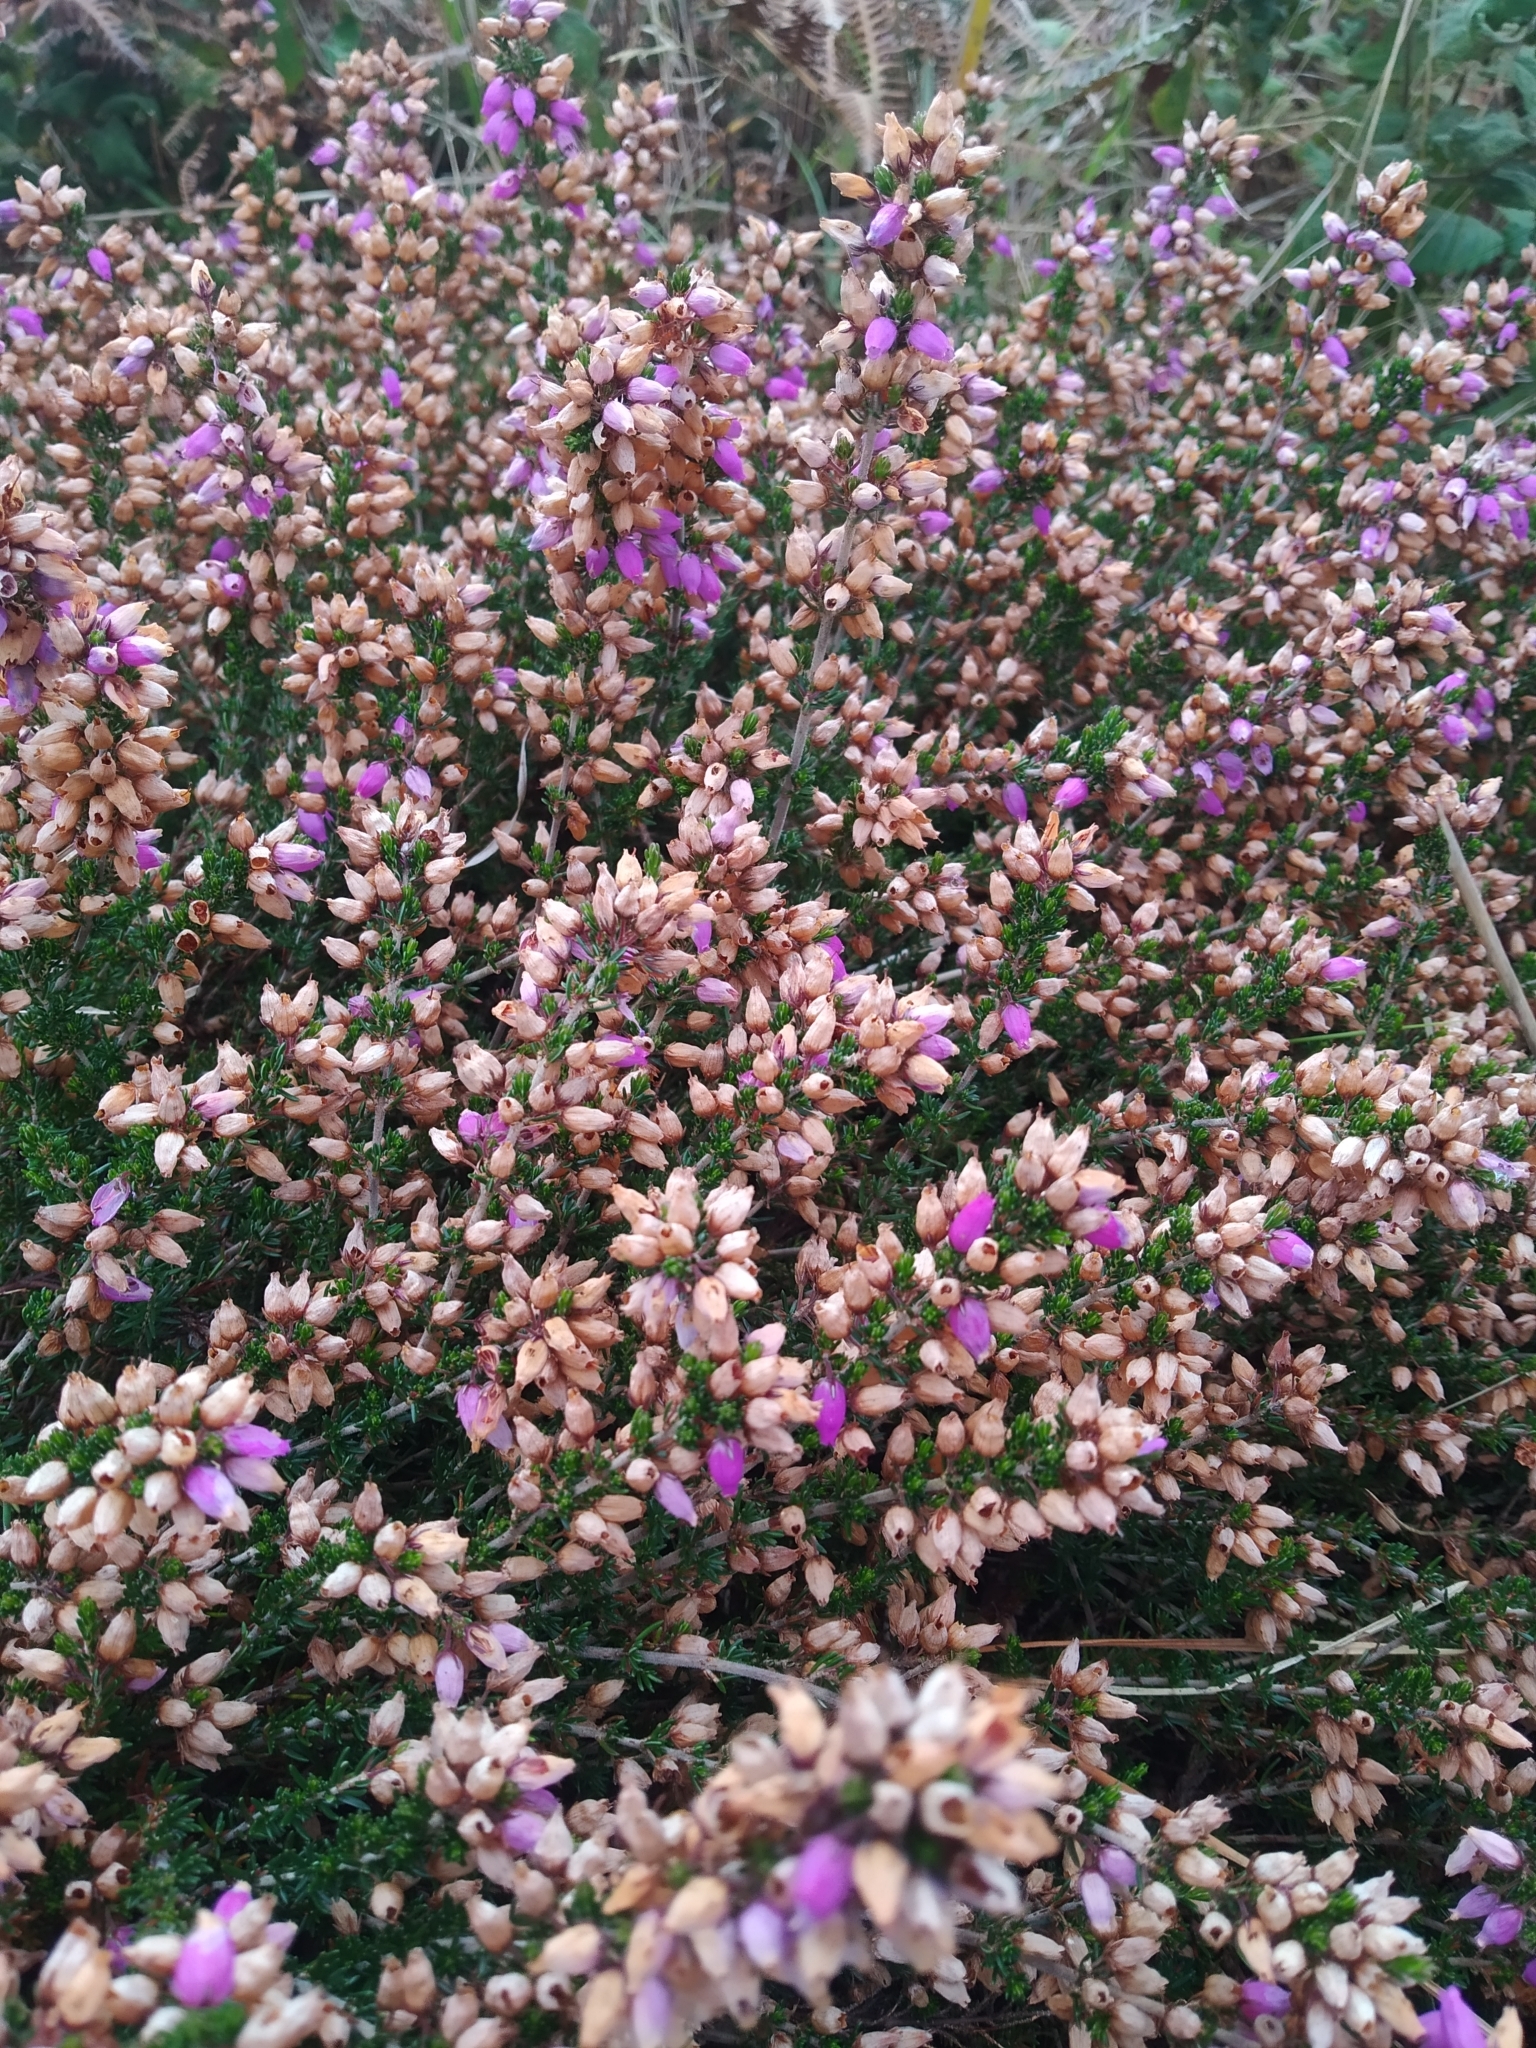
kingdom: Plantae
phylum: Tracheophyta
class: Magnoliopsida
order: Ericales
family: Ericaceae
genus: Erica
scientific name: Erica cinerea
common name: Bell heather
